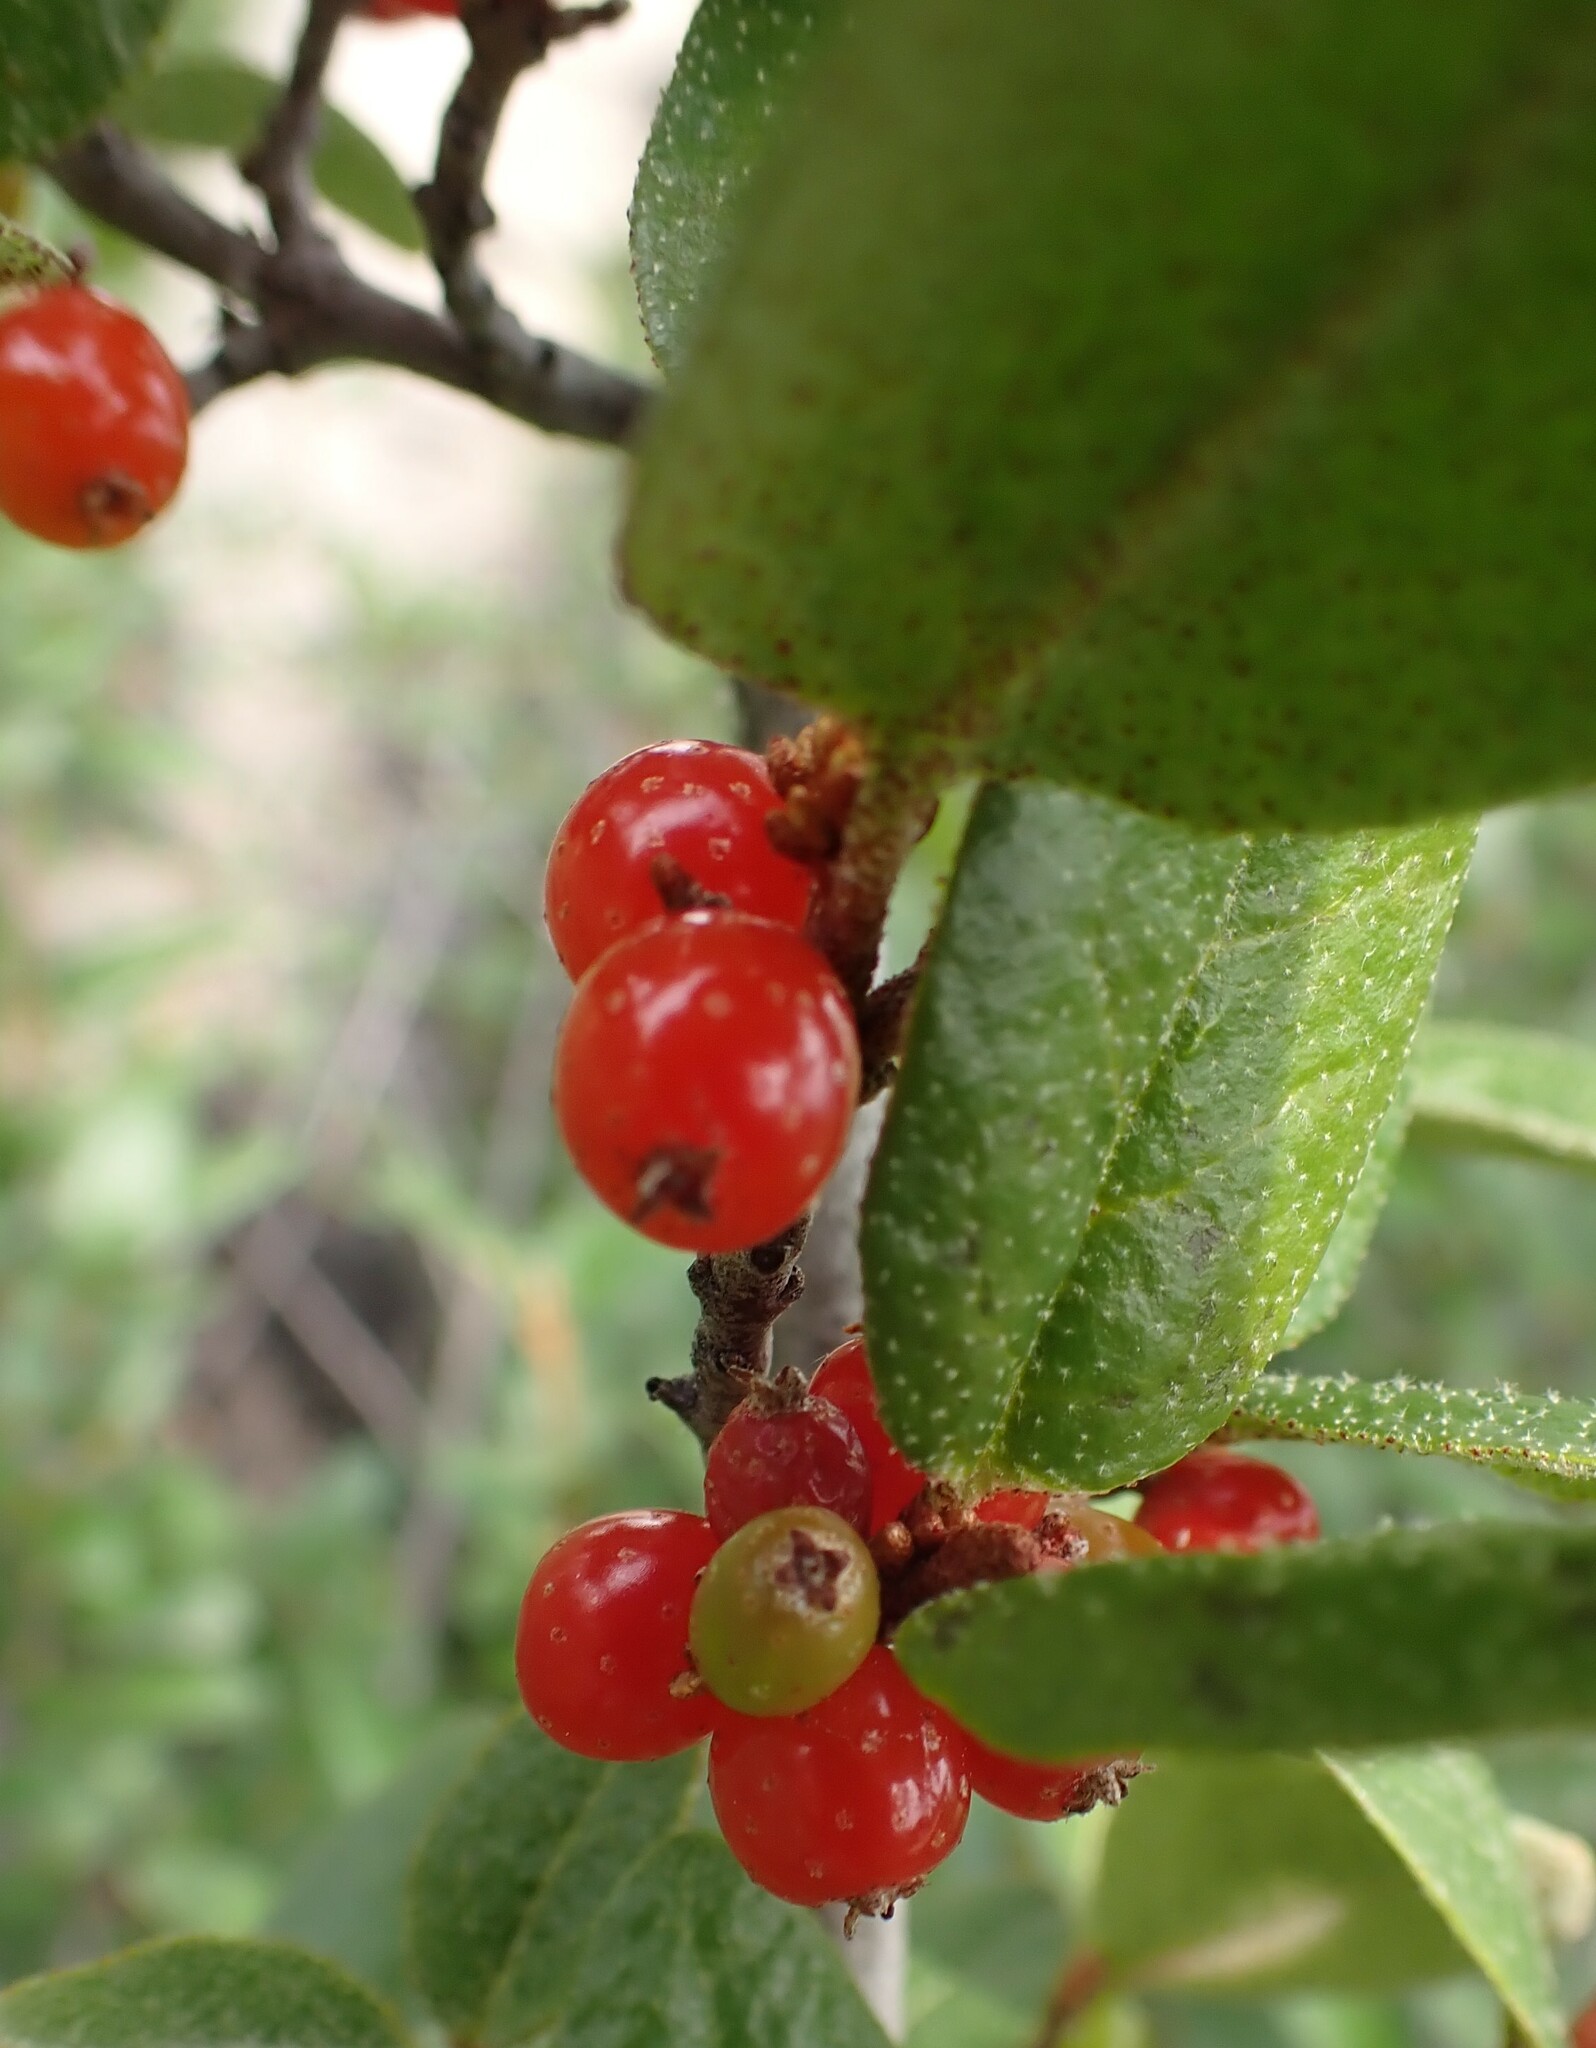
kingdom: Plantae
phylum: Tracheophyta
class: Magnoliopsida
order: Rosales
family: Elaeagnaceae
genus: Shepherdia
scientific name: Shepherdia canadensis
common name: Soapberry
